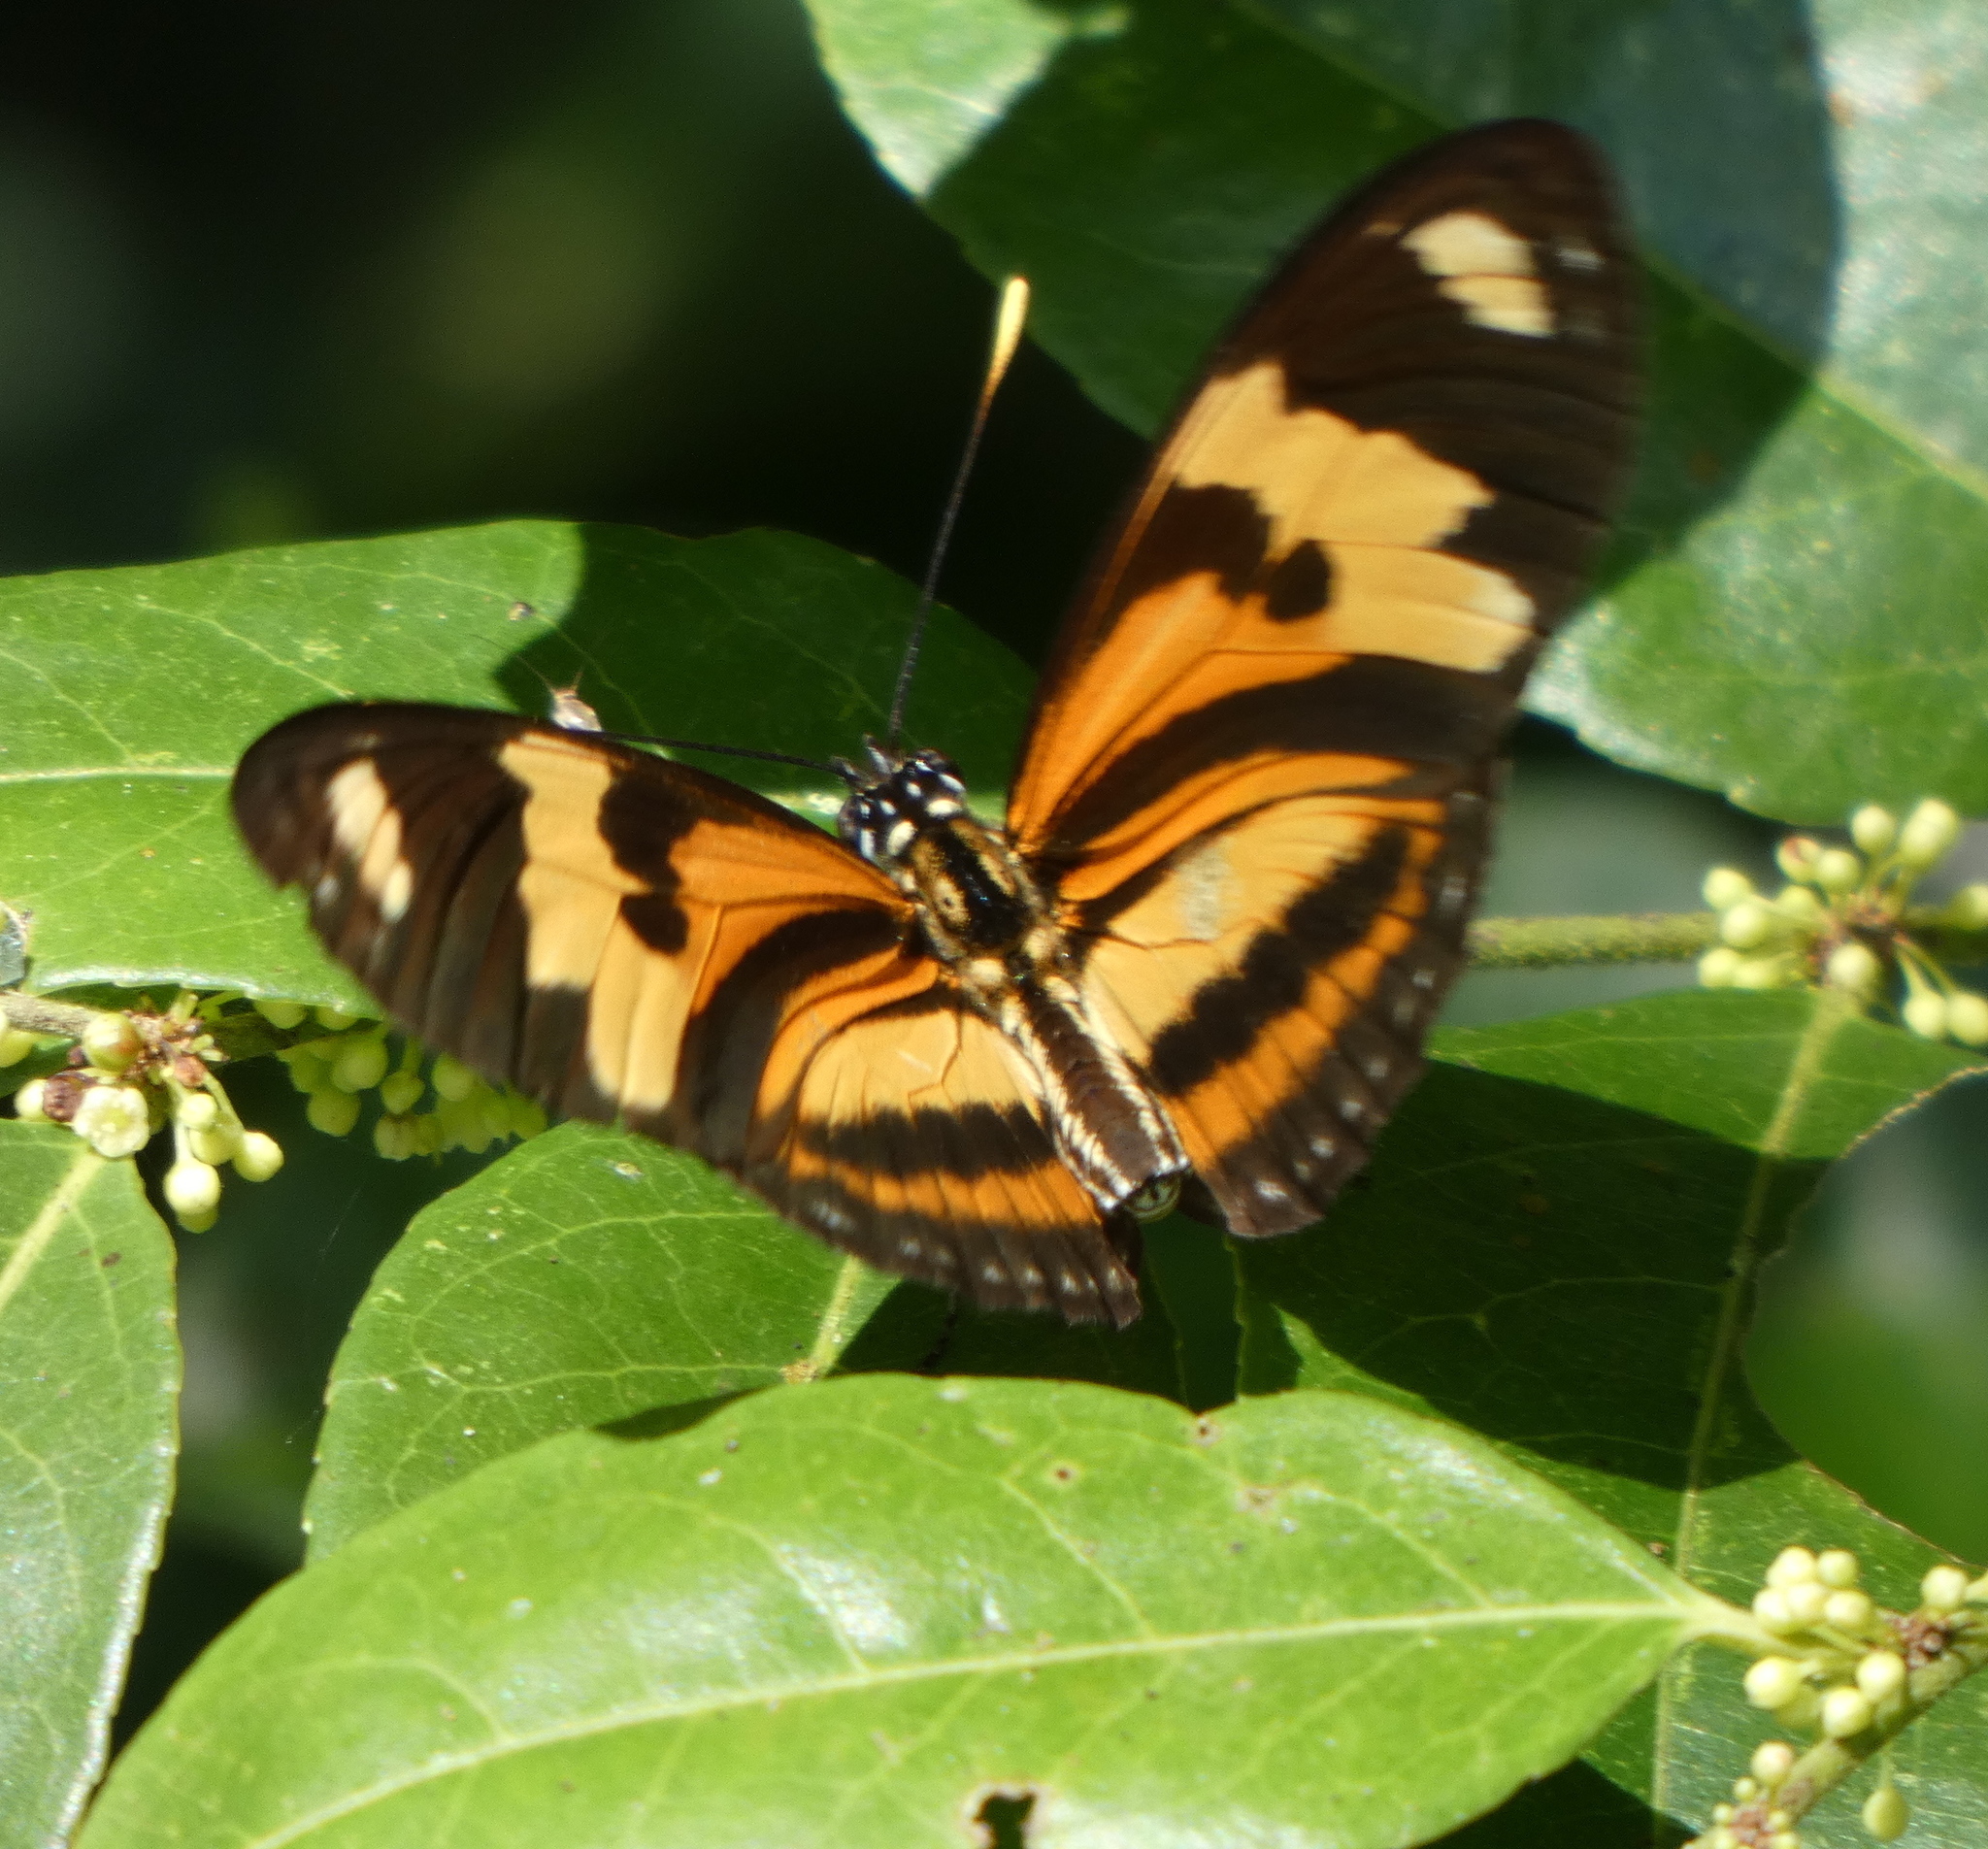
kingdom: Animalia
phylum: Arthropoda
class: Insecta
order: Lepidoptera
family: Nymphalidae
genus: Eueides
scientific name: Eueides isabella
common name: Isabella's longwing
